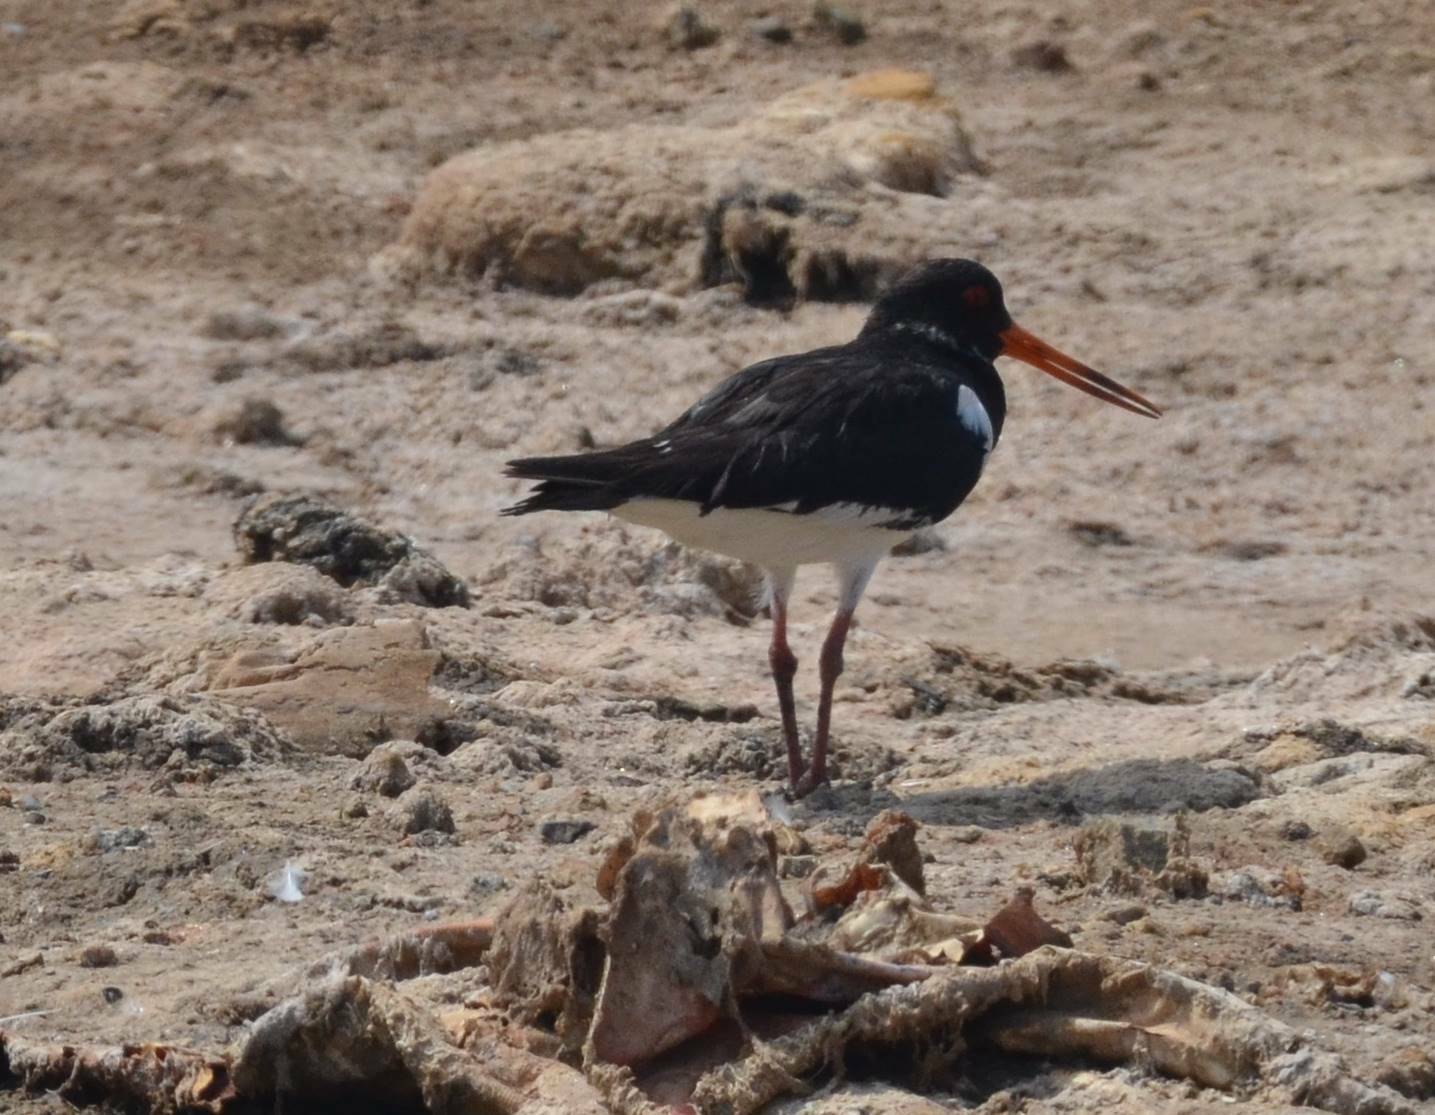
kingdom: Animalia
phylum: Chordata
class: Aves
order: Charadriiformes
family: Haematopodidae
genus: Haematopus
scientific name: Haematopus ostralegus
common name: Eurasian oystercatcher
